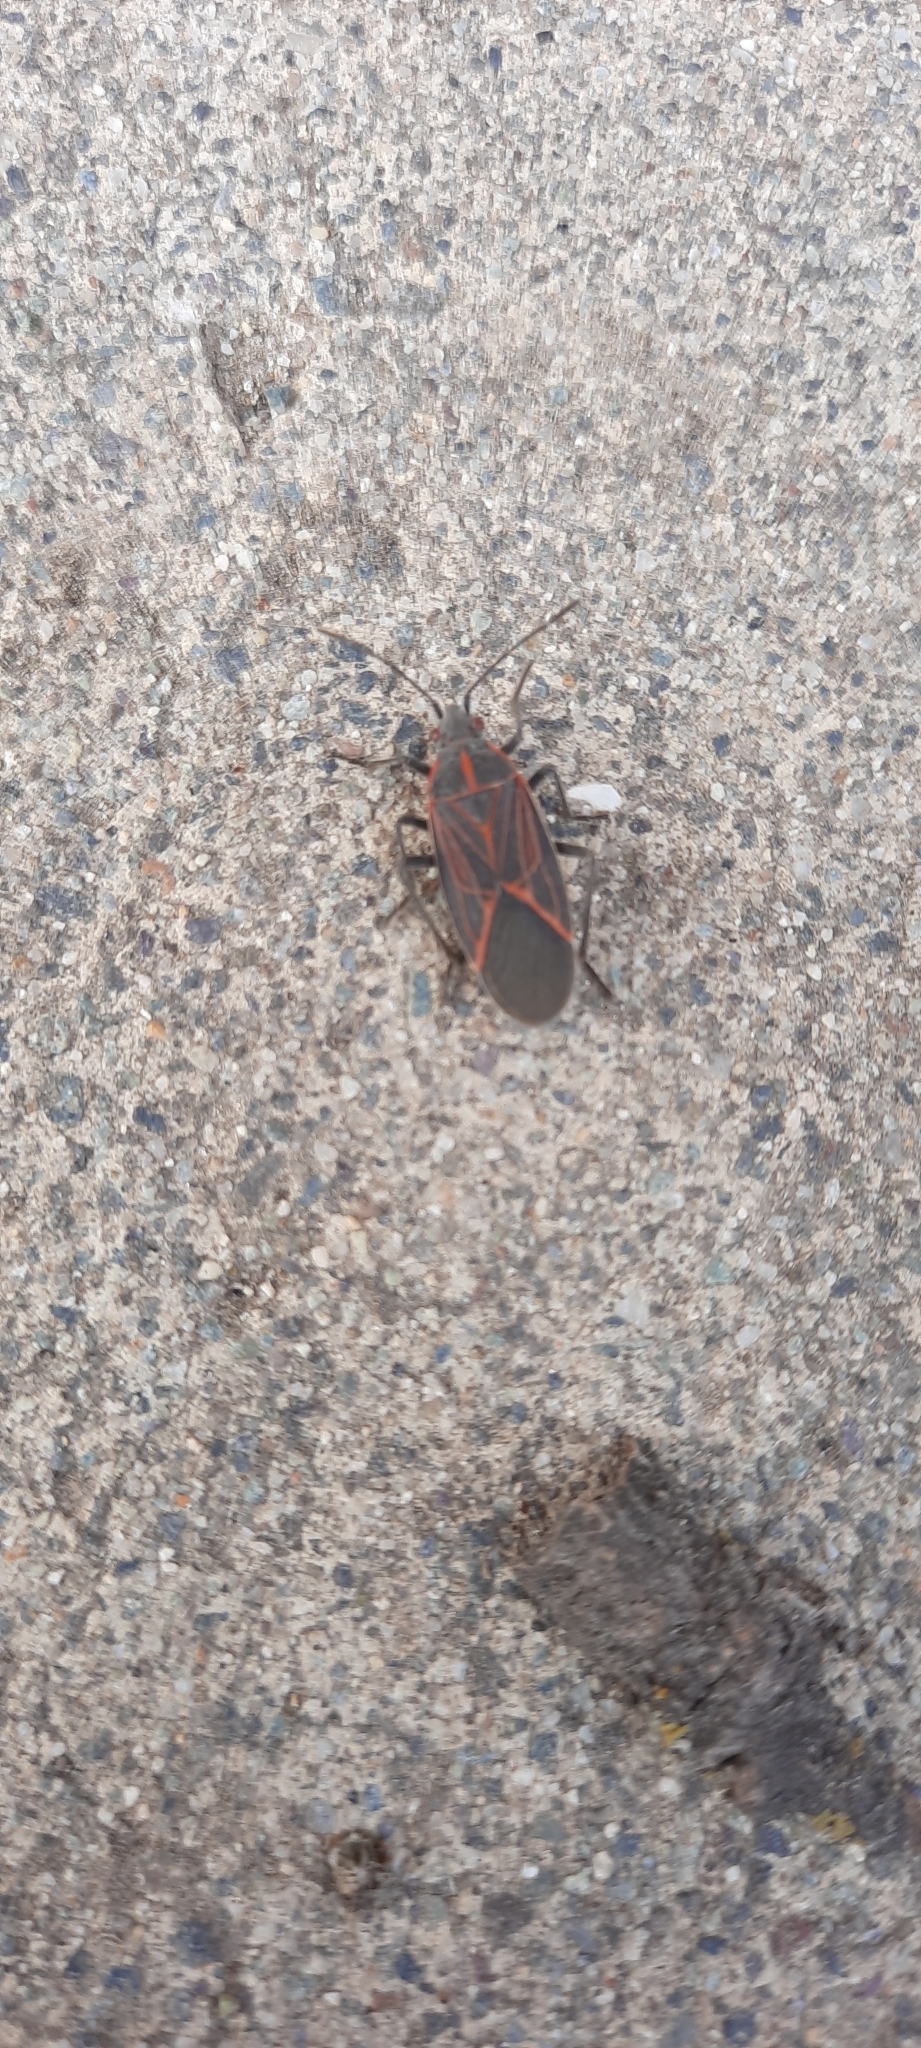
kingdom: Animalia
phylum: Arthropoda
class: Insecta
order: Hemiptera
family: Rhopalidae
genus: Boisea
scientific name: Boisea rubrolineata
